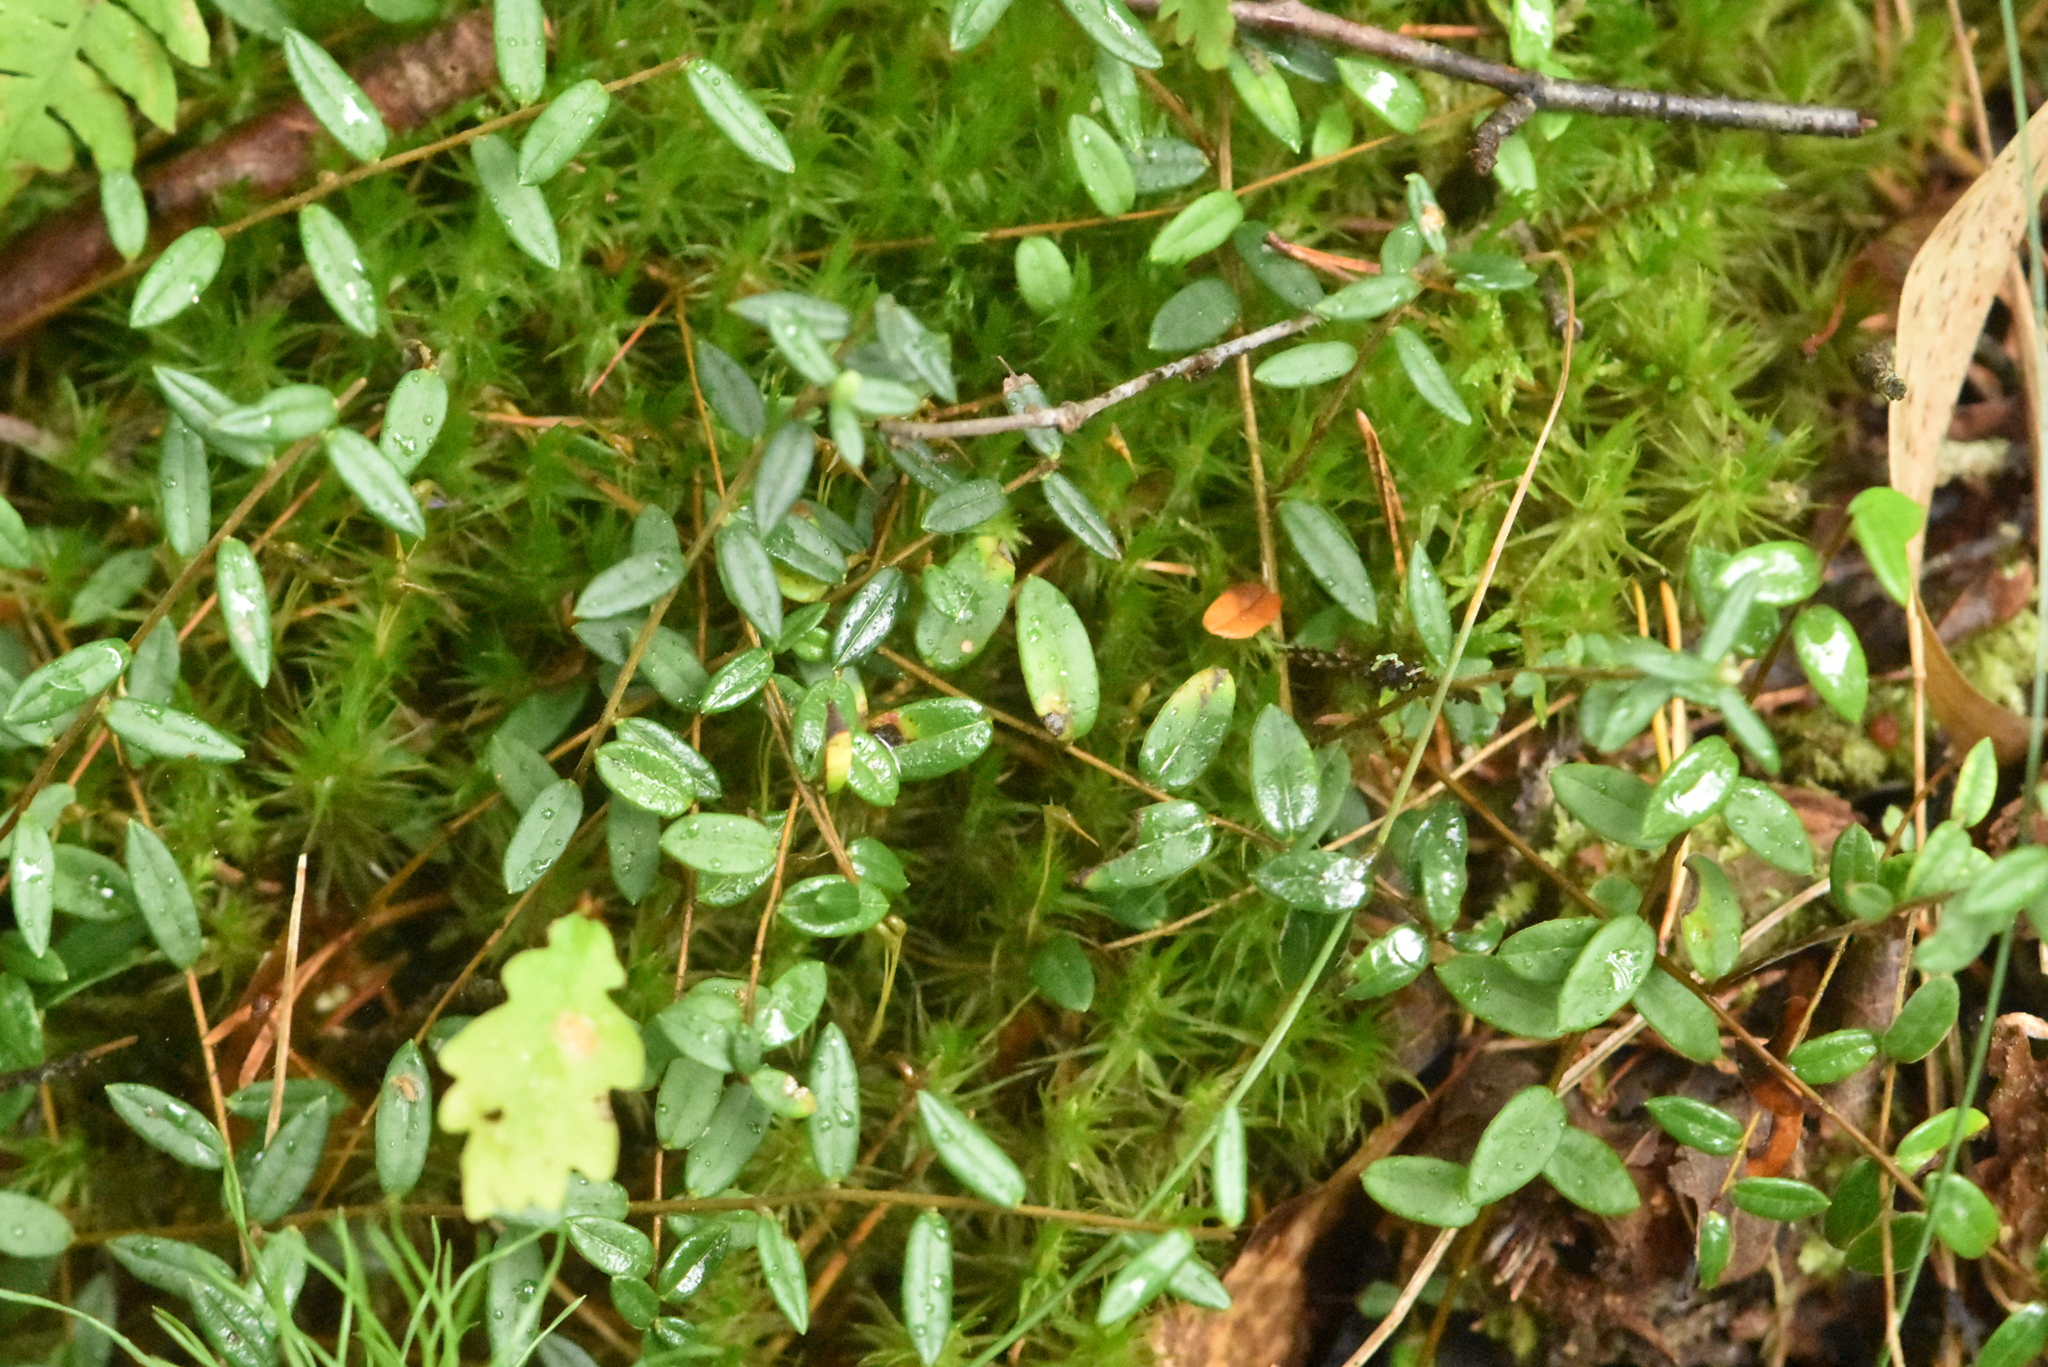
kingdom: Plantae
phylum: Tracheophyta
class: Magnoliopsida
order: Ericales
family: Ericaceae
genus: Vaccinium
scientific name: Vaccinium oxycoccos
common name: Cranberry
